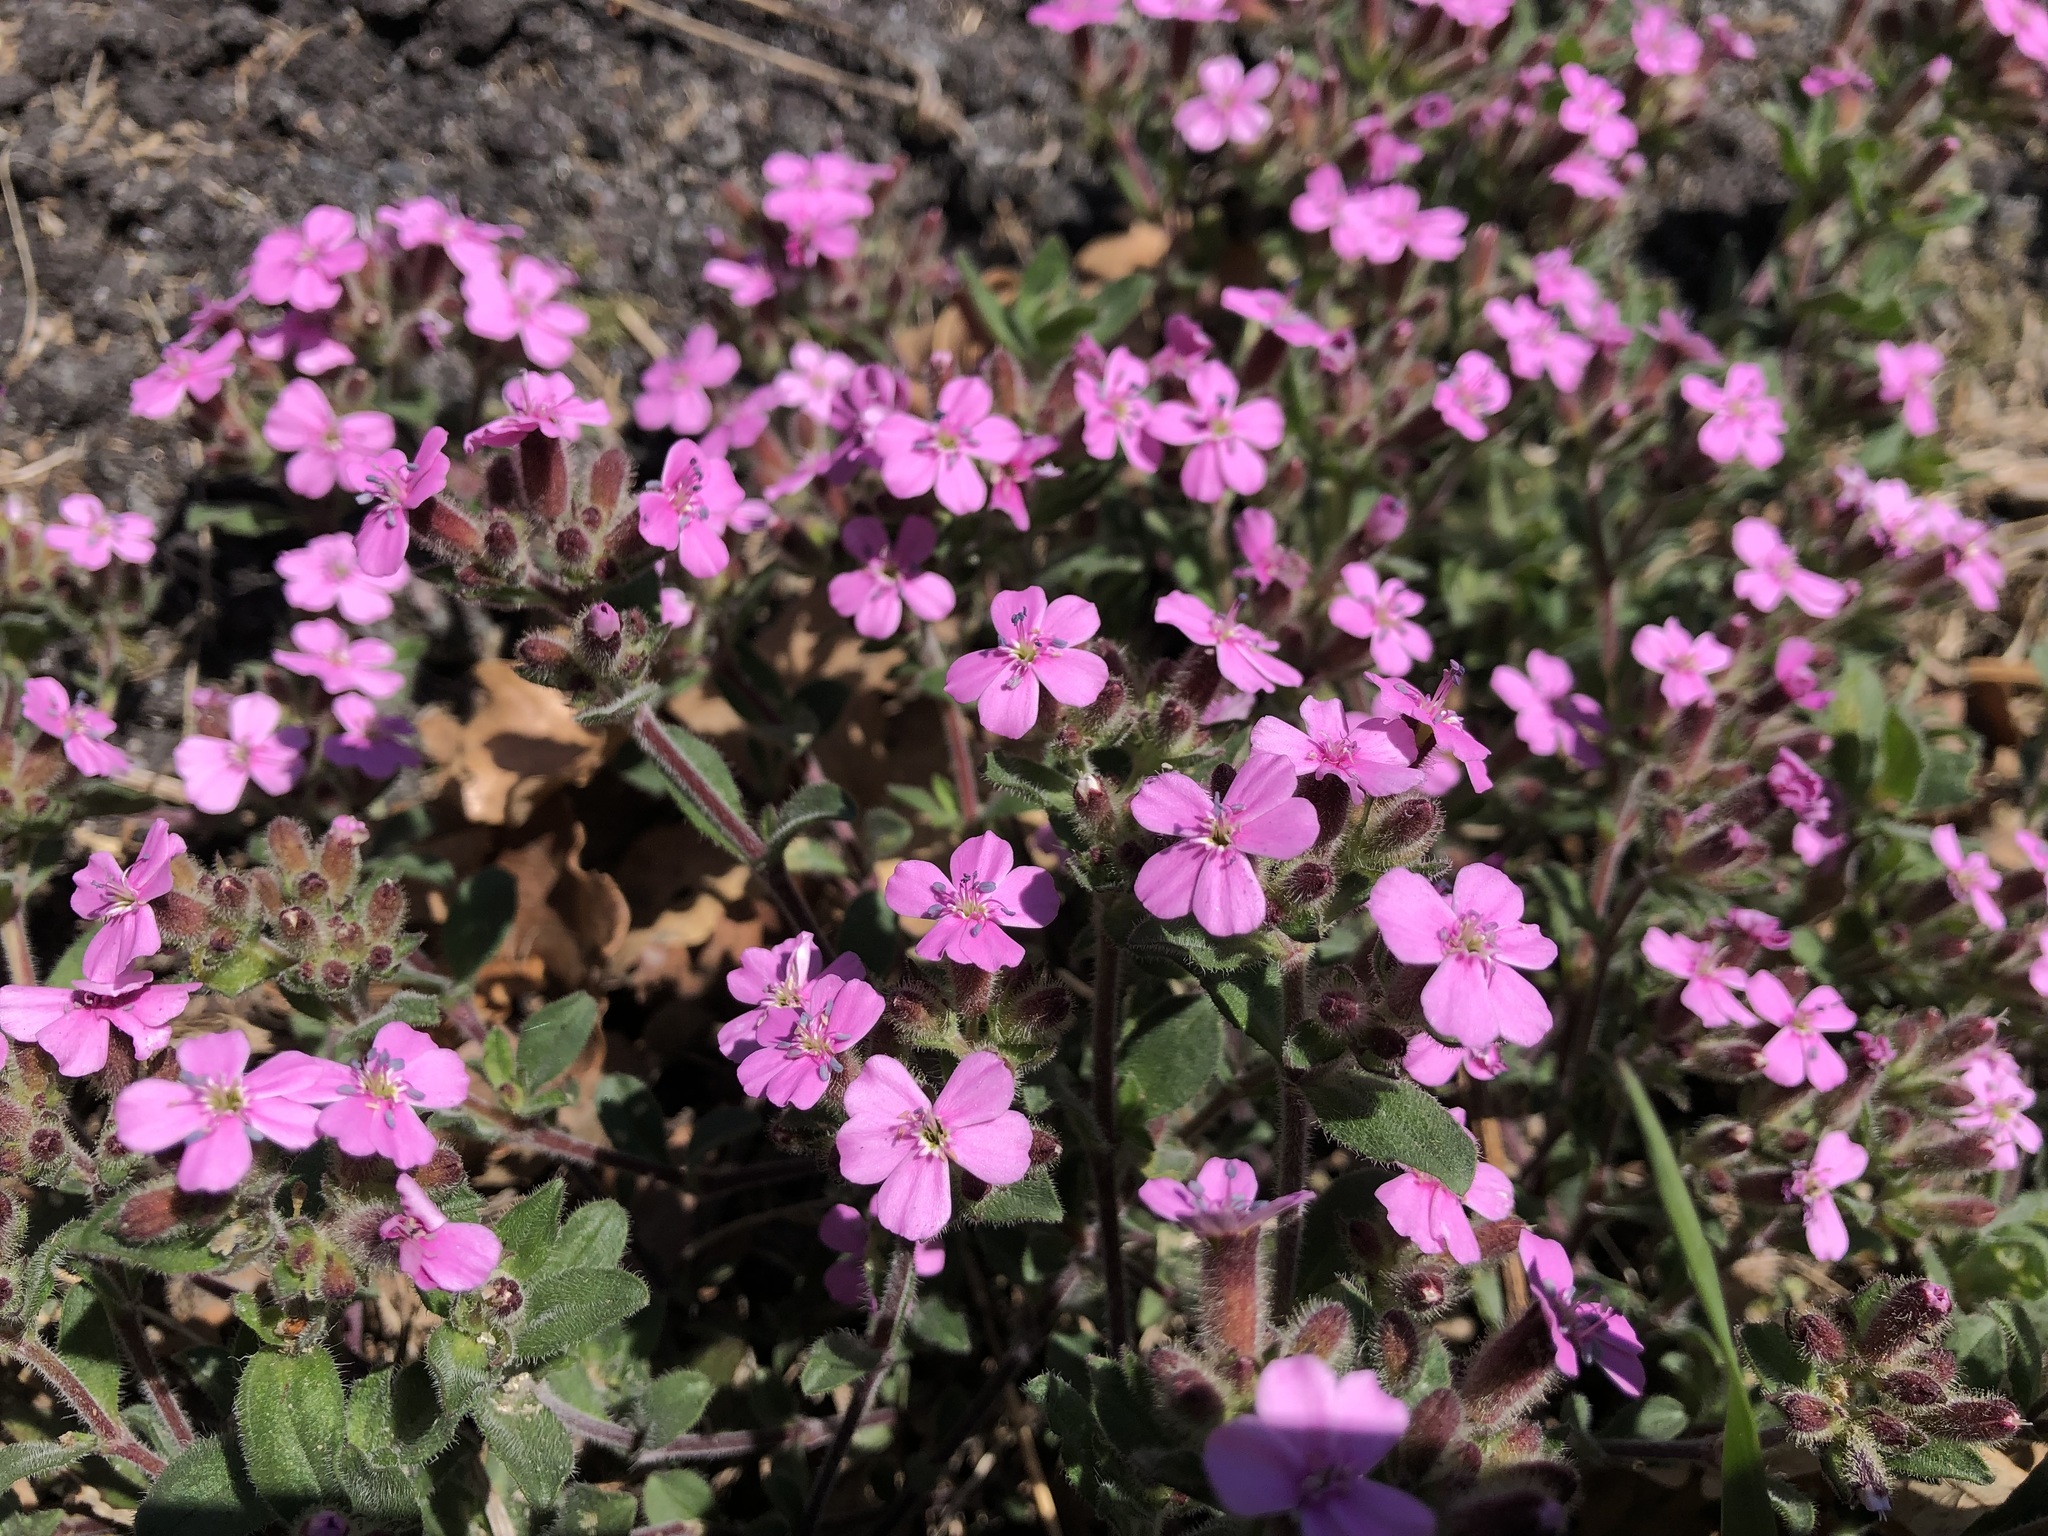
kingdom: Plantae
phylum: Tracheophyta
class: Magnoliopsida
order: Caryophyllales
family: Caryophyllaceae
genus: Saponaria
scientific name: Saponaria ocymoides
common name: Rock soapwort
